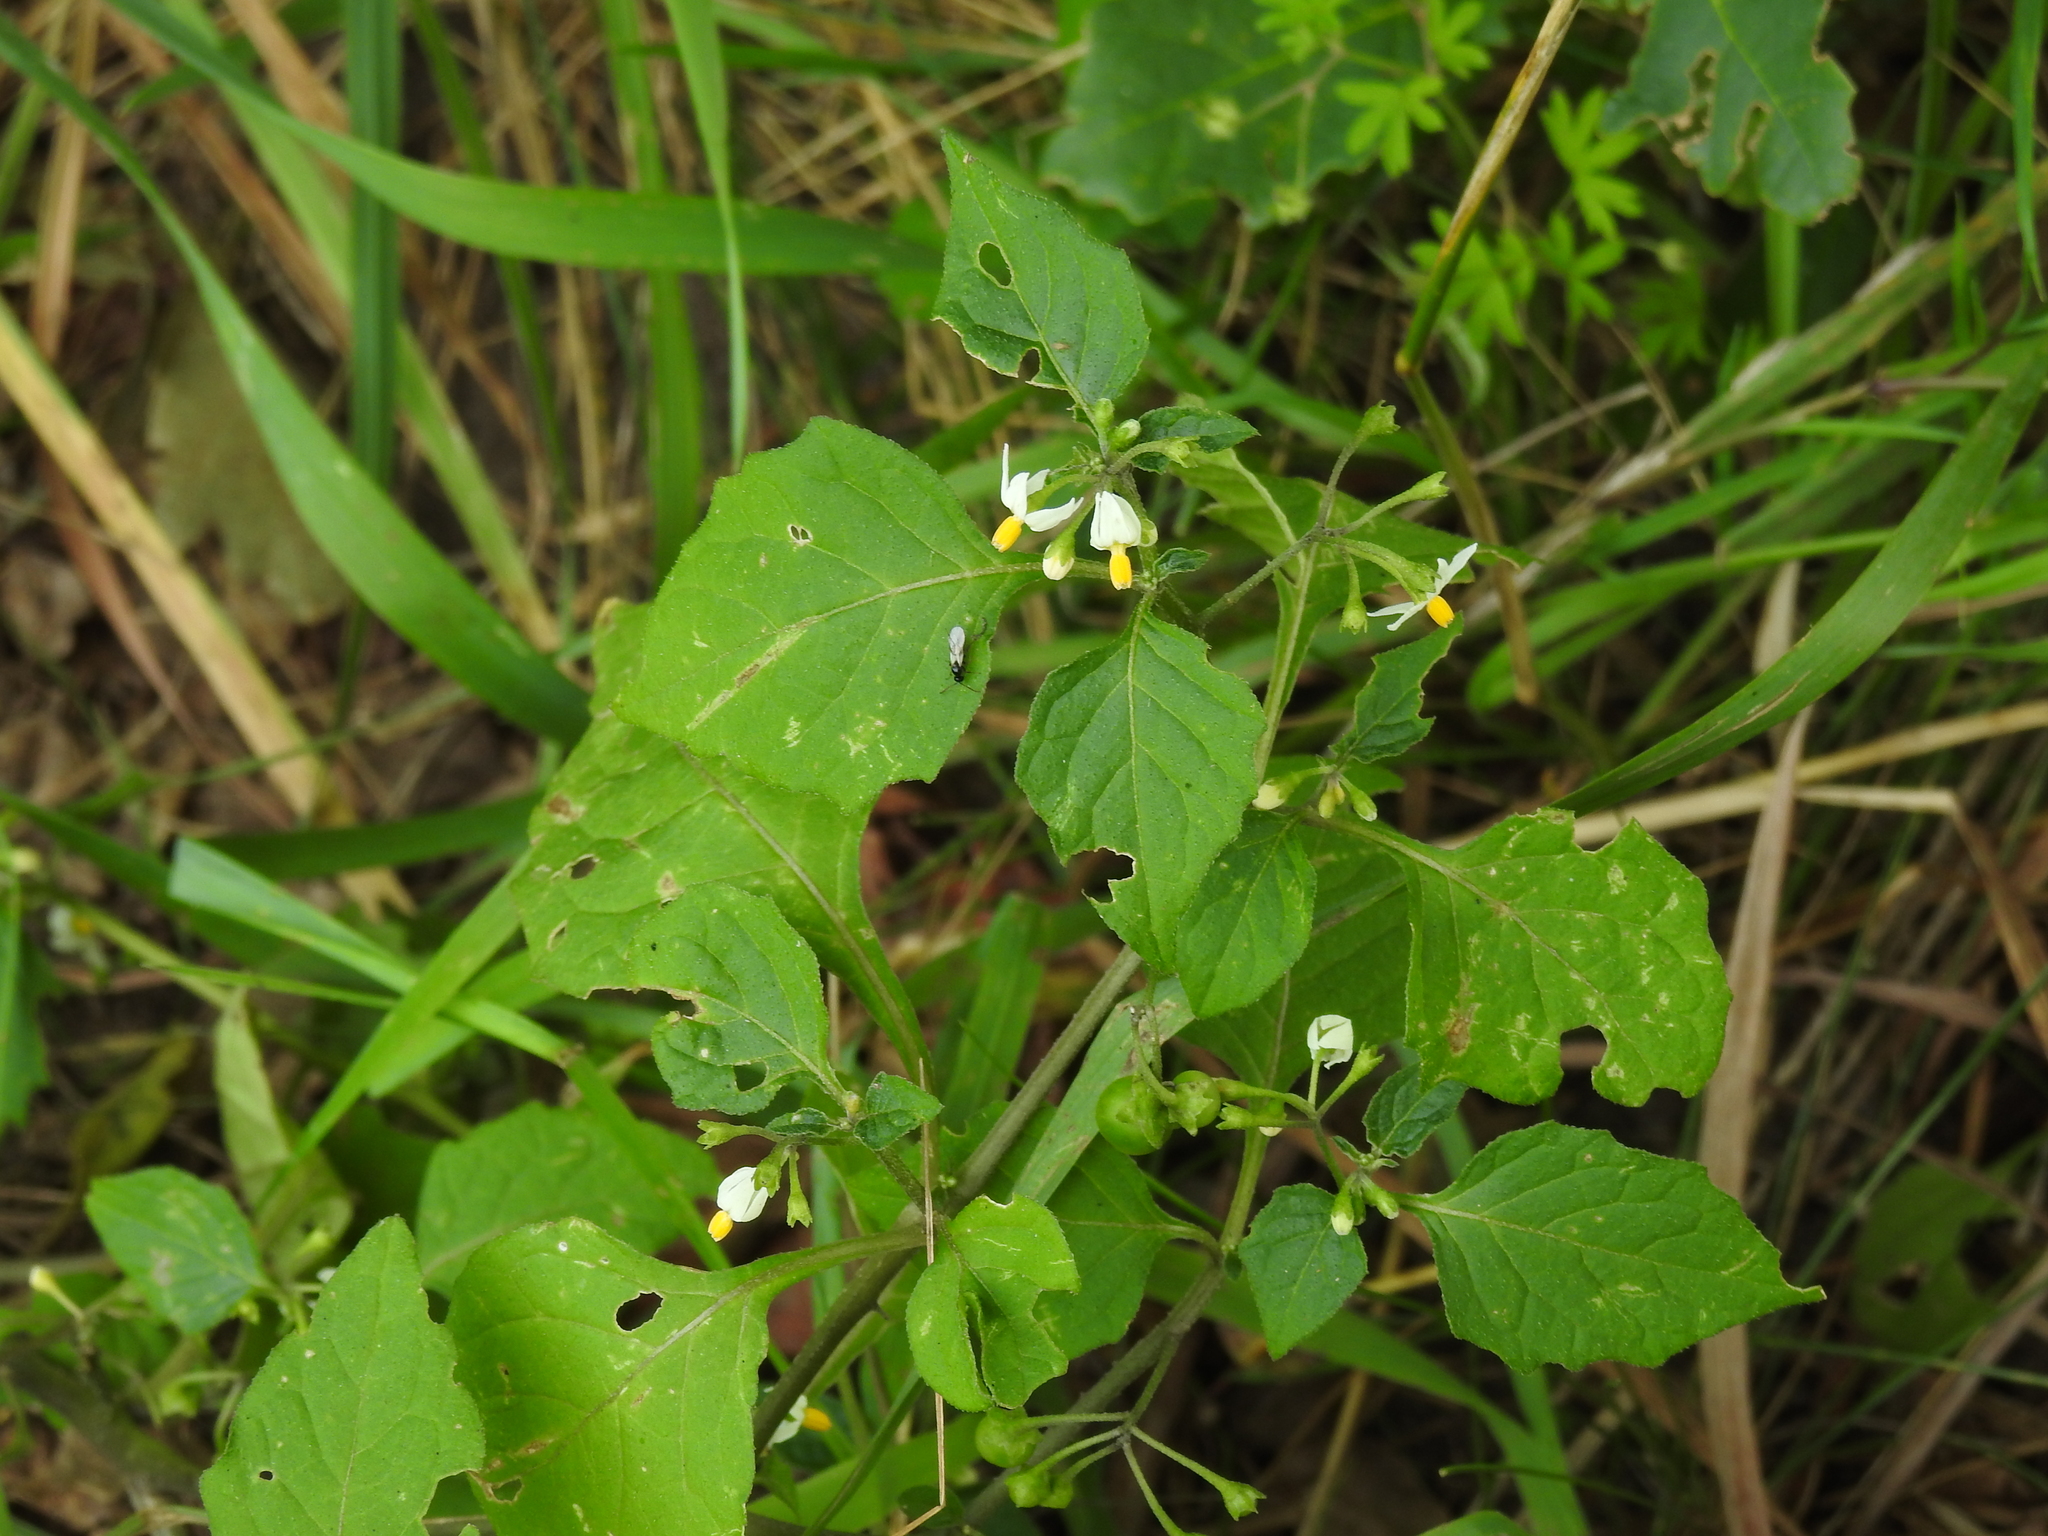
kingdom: Plantae
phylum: Tracheophyta
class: Magnoliopsida
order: Solanales
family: Solanaceae
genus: Solanum
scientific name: Solanum nigrum
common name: Black nightshade
